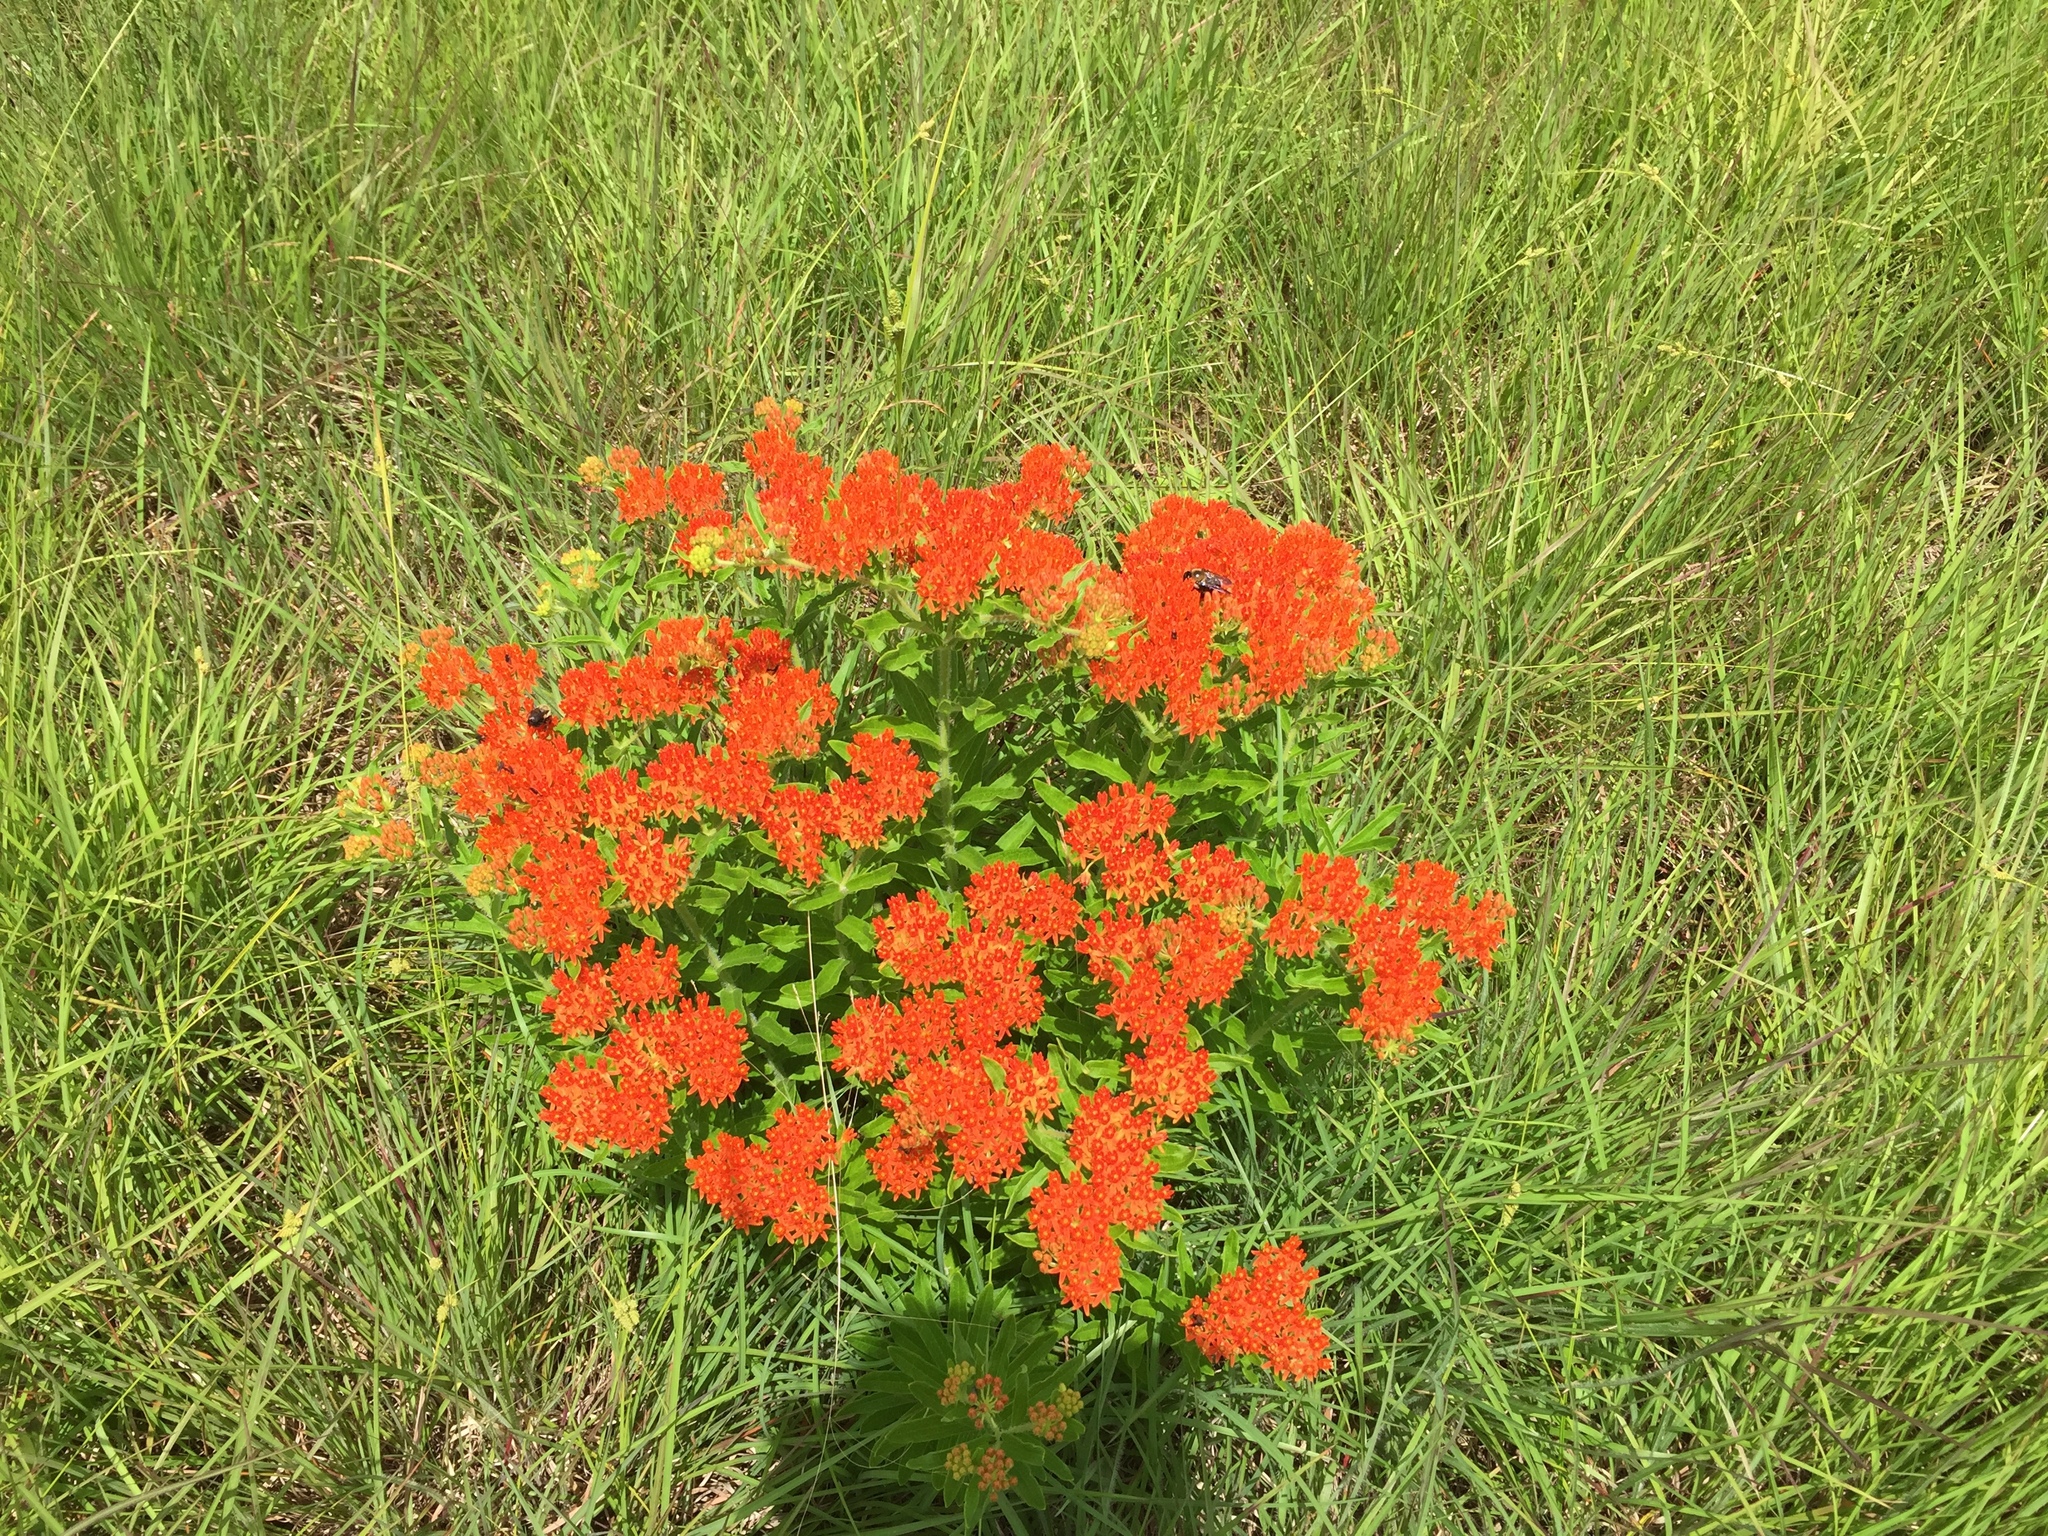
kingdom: Plantae
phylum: Tracheophyta
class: Magnoliopsida
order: Gentianales
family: Apocynaceae
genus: Asclepias
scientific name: Asclepias tuberosa
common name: Butterfly milkweed
